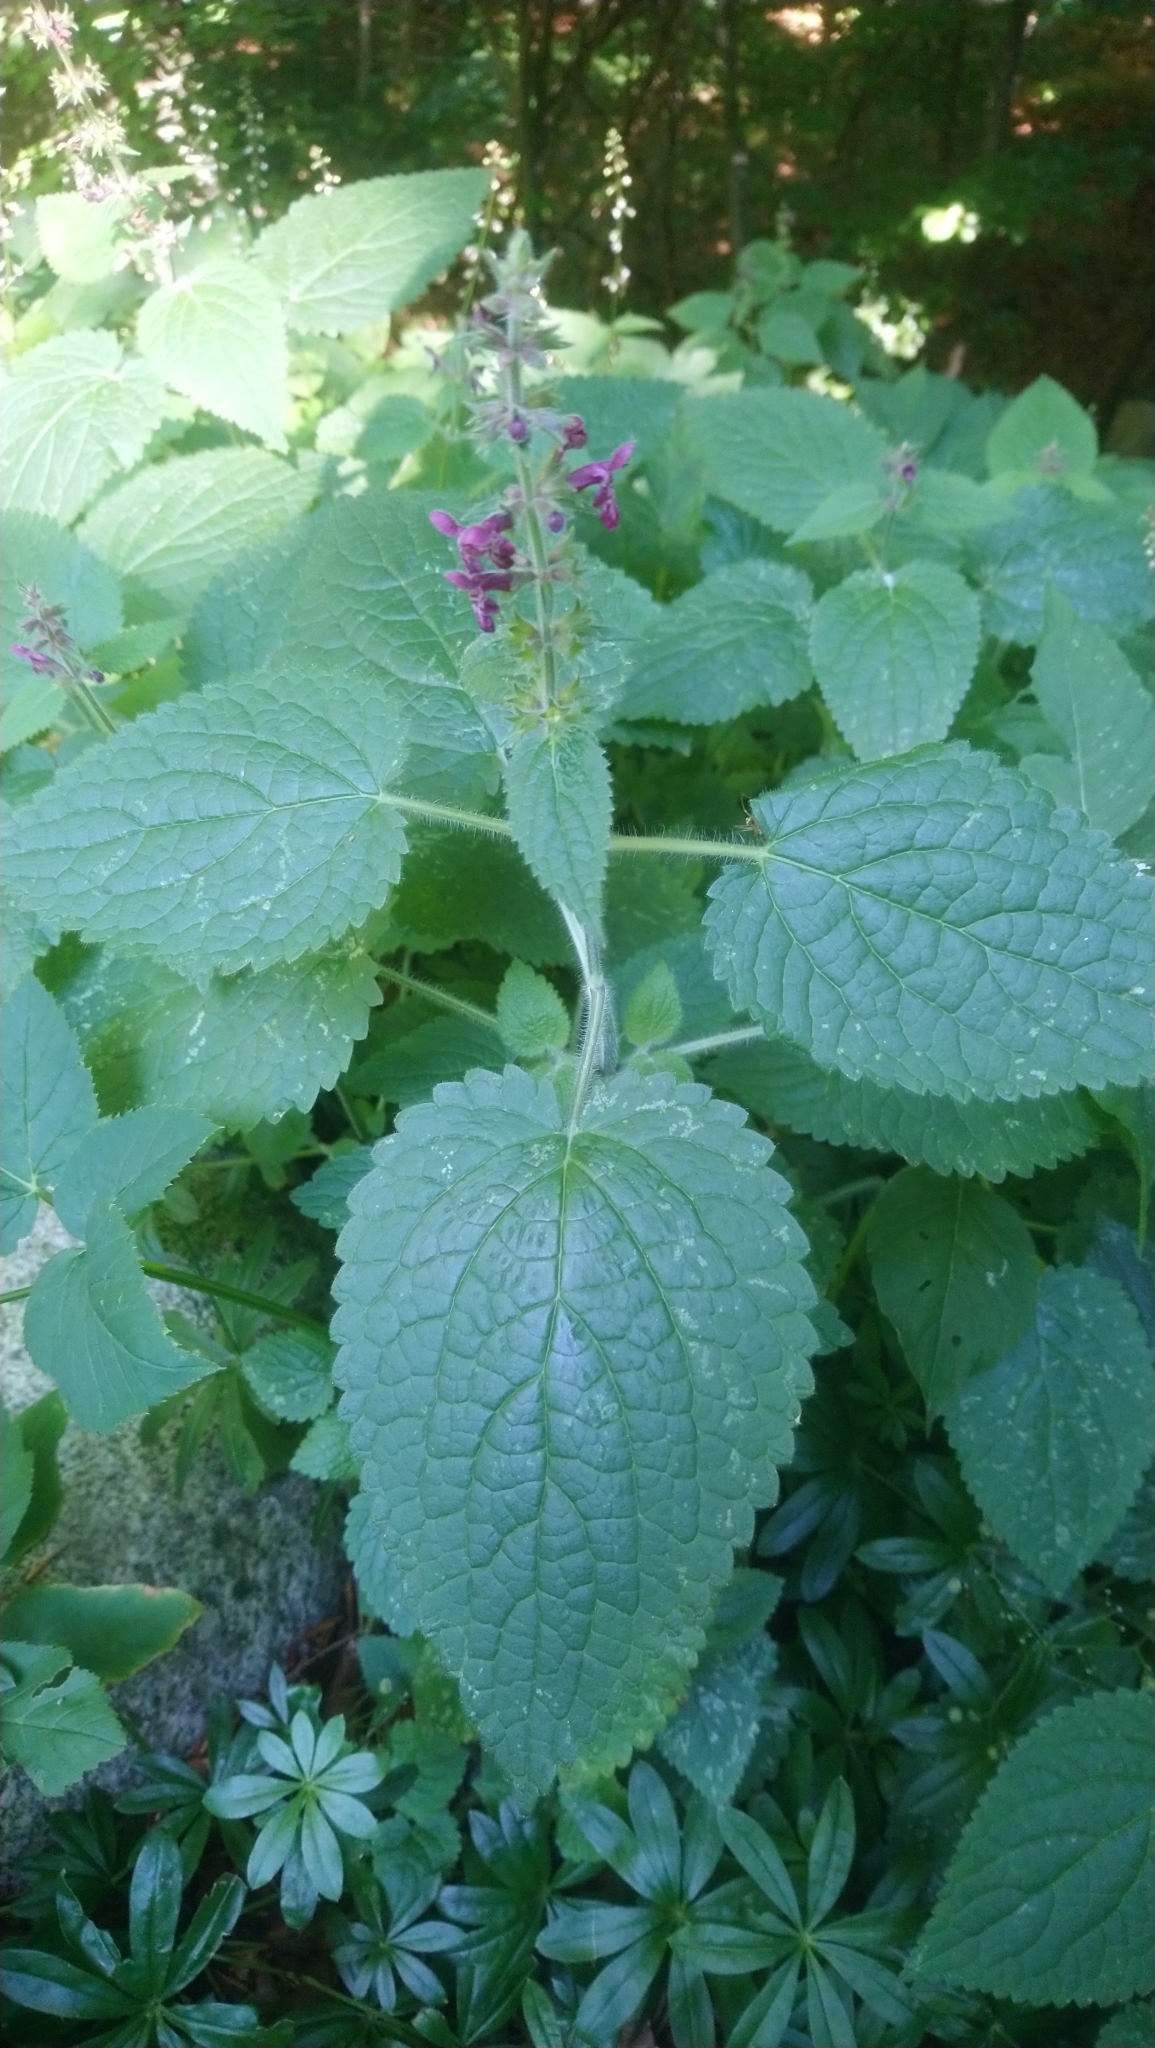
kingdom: Plantae
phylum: Tracheophyta
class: Magnoliopsida
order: Lamiales
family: Lamiaceae
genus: Stachys
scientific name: Stachys sylvatica
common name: Hedge woundwort
